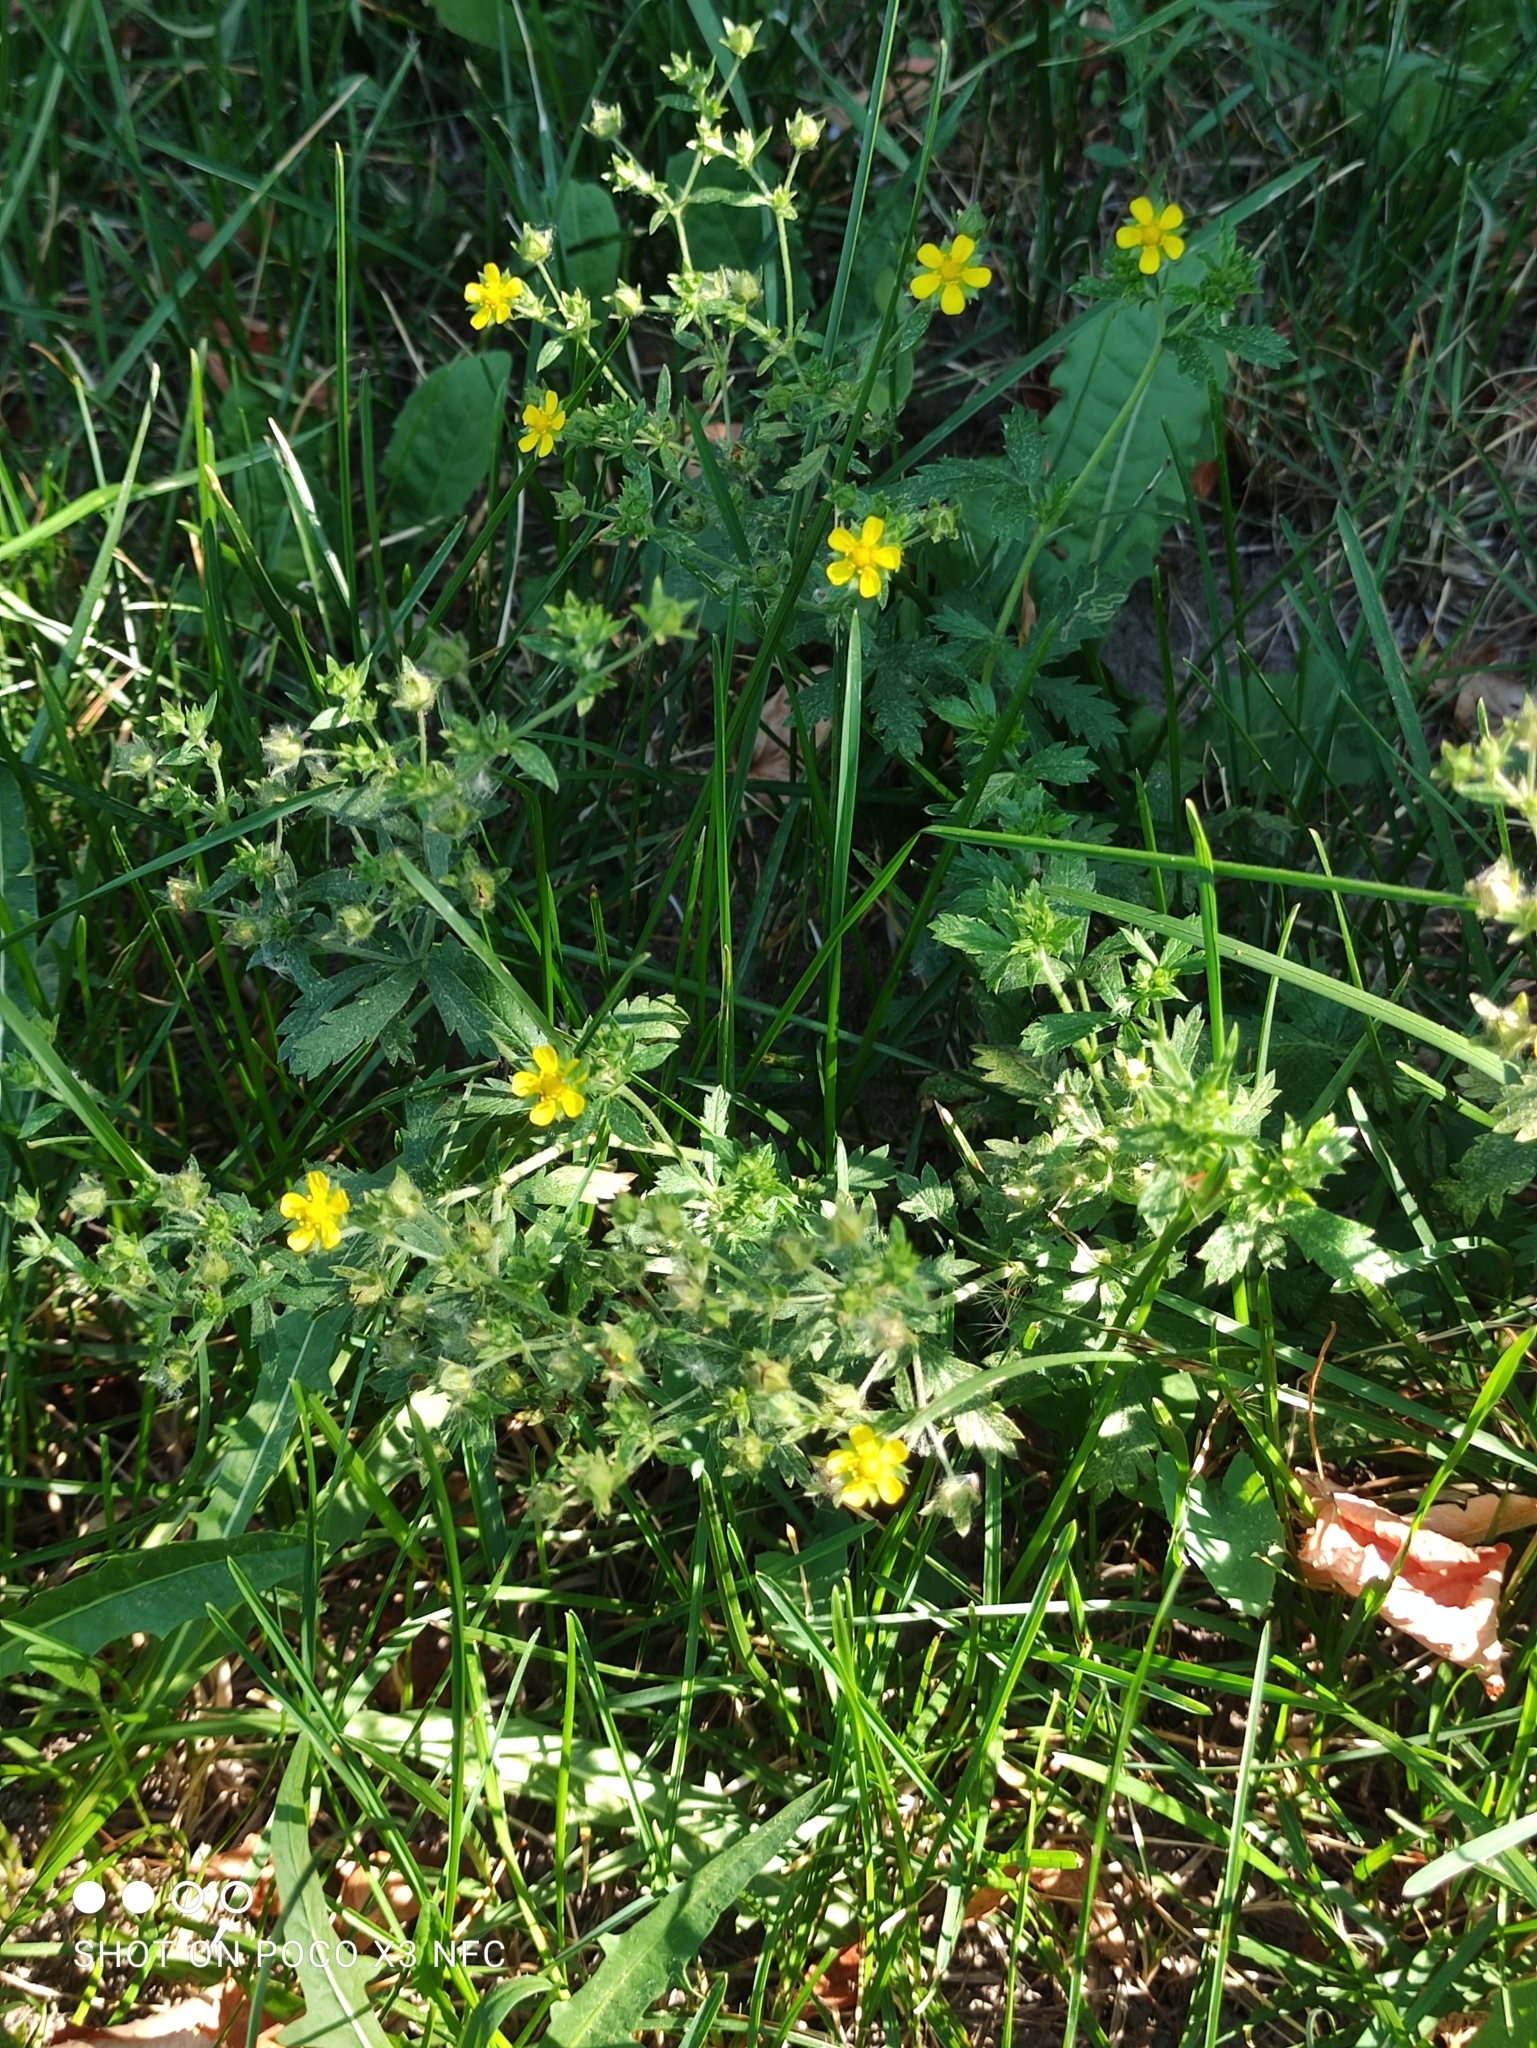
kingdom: Plantae
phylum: Tracheophyta
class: Magnoliopsida
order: Rosales
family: Rosaceae
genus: Potentilla
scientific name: Potentilla argentea
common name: Hoary cinquefoil
